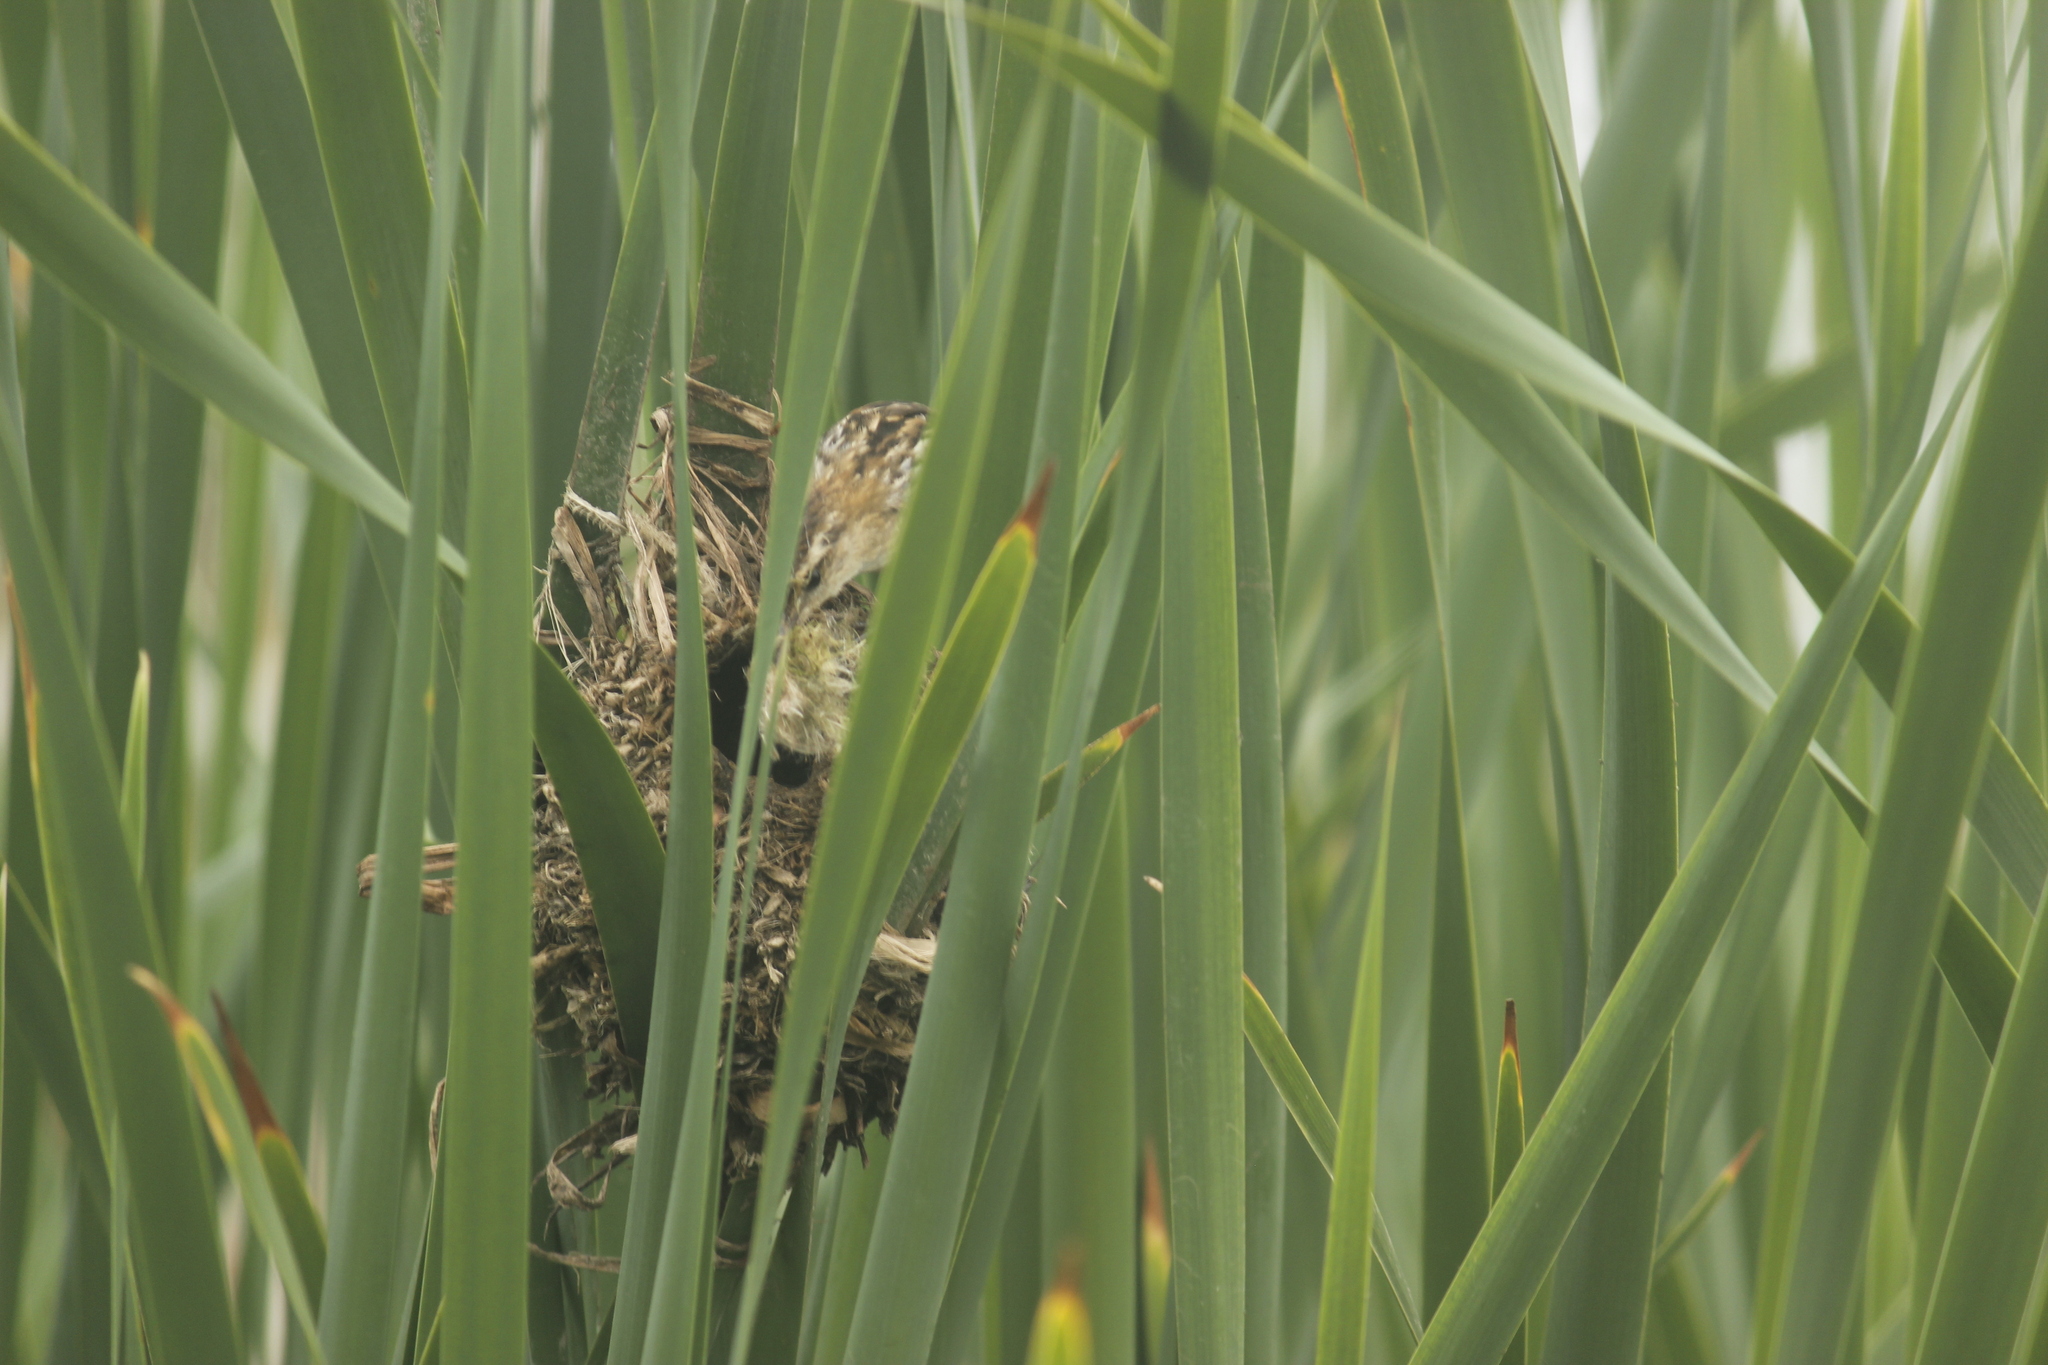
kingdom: Animalia
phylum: Chordata
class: Aves
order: Passeriformes
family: Furnariidae
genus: Phleocryptes
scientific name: Phleocryptes melanops
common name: Wren-like rushbird
